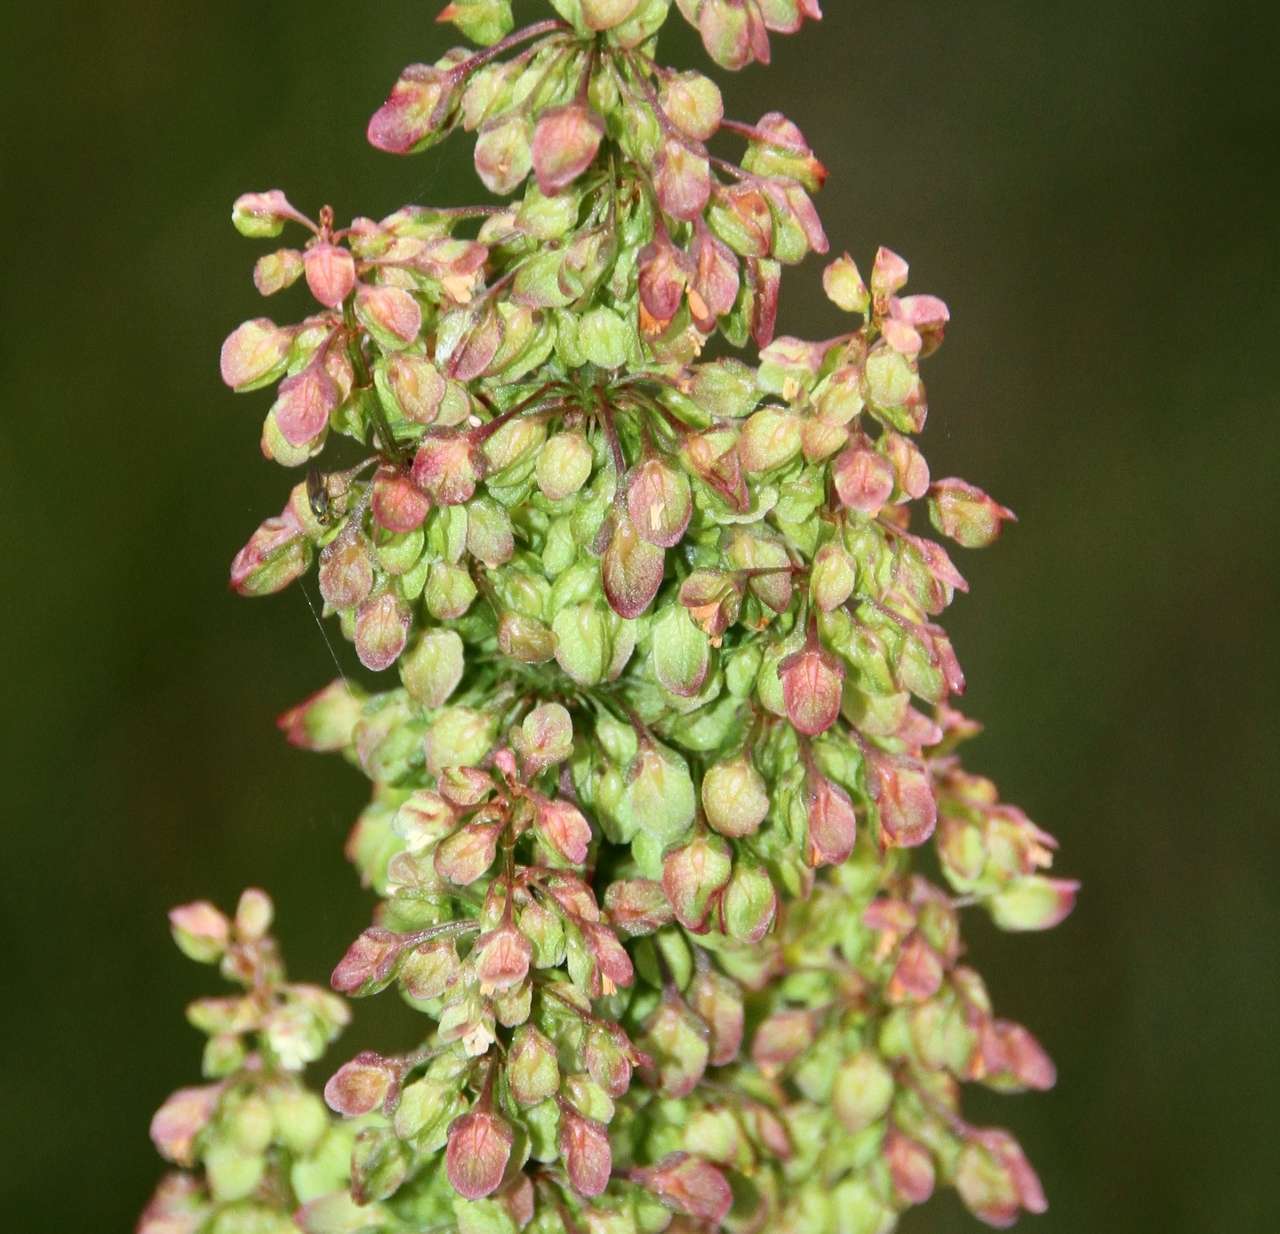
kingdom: Plantae
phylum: Tracheophyta
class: Magnoliopsida
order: Caryophyllales
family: Polygonaceae
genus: Rumex
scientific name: Rumex crispus
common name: Curled dock
